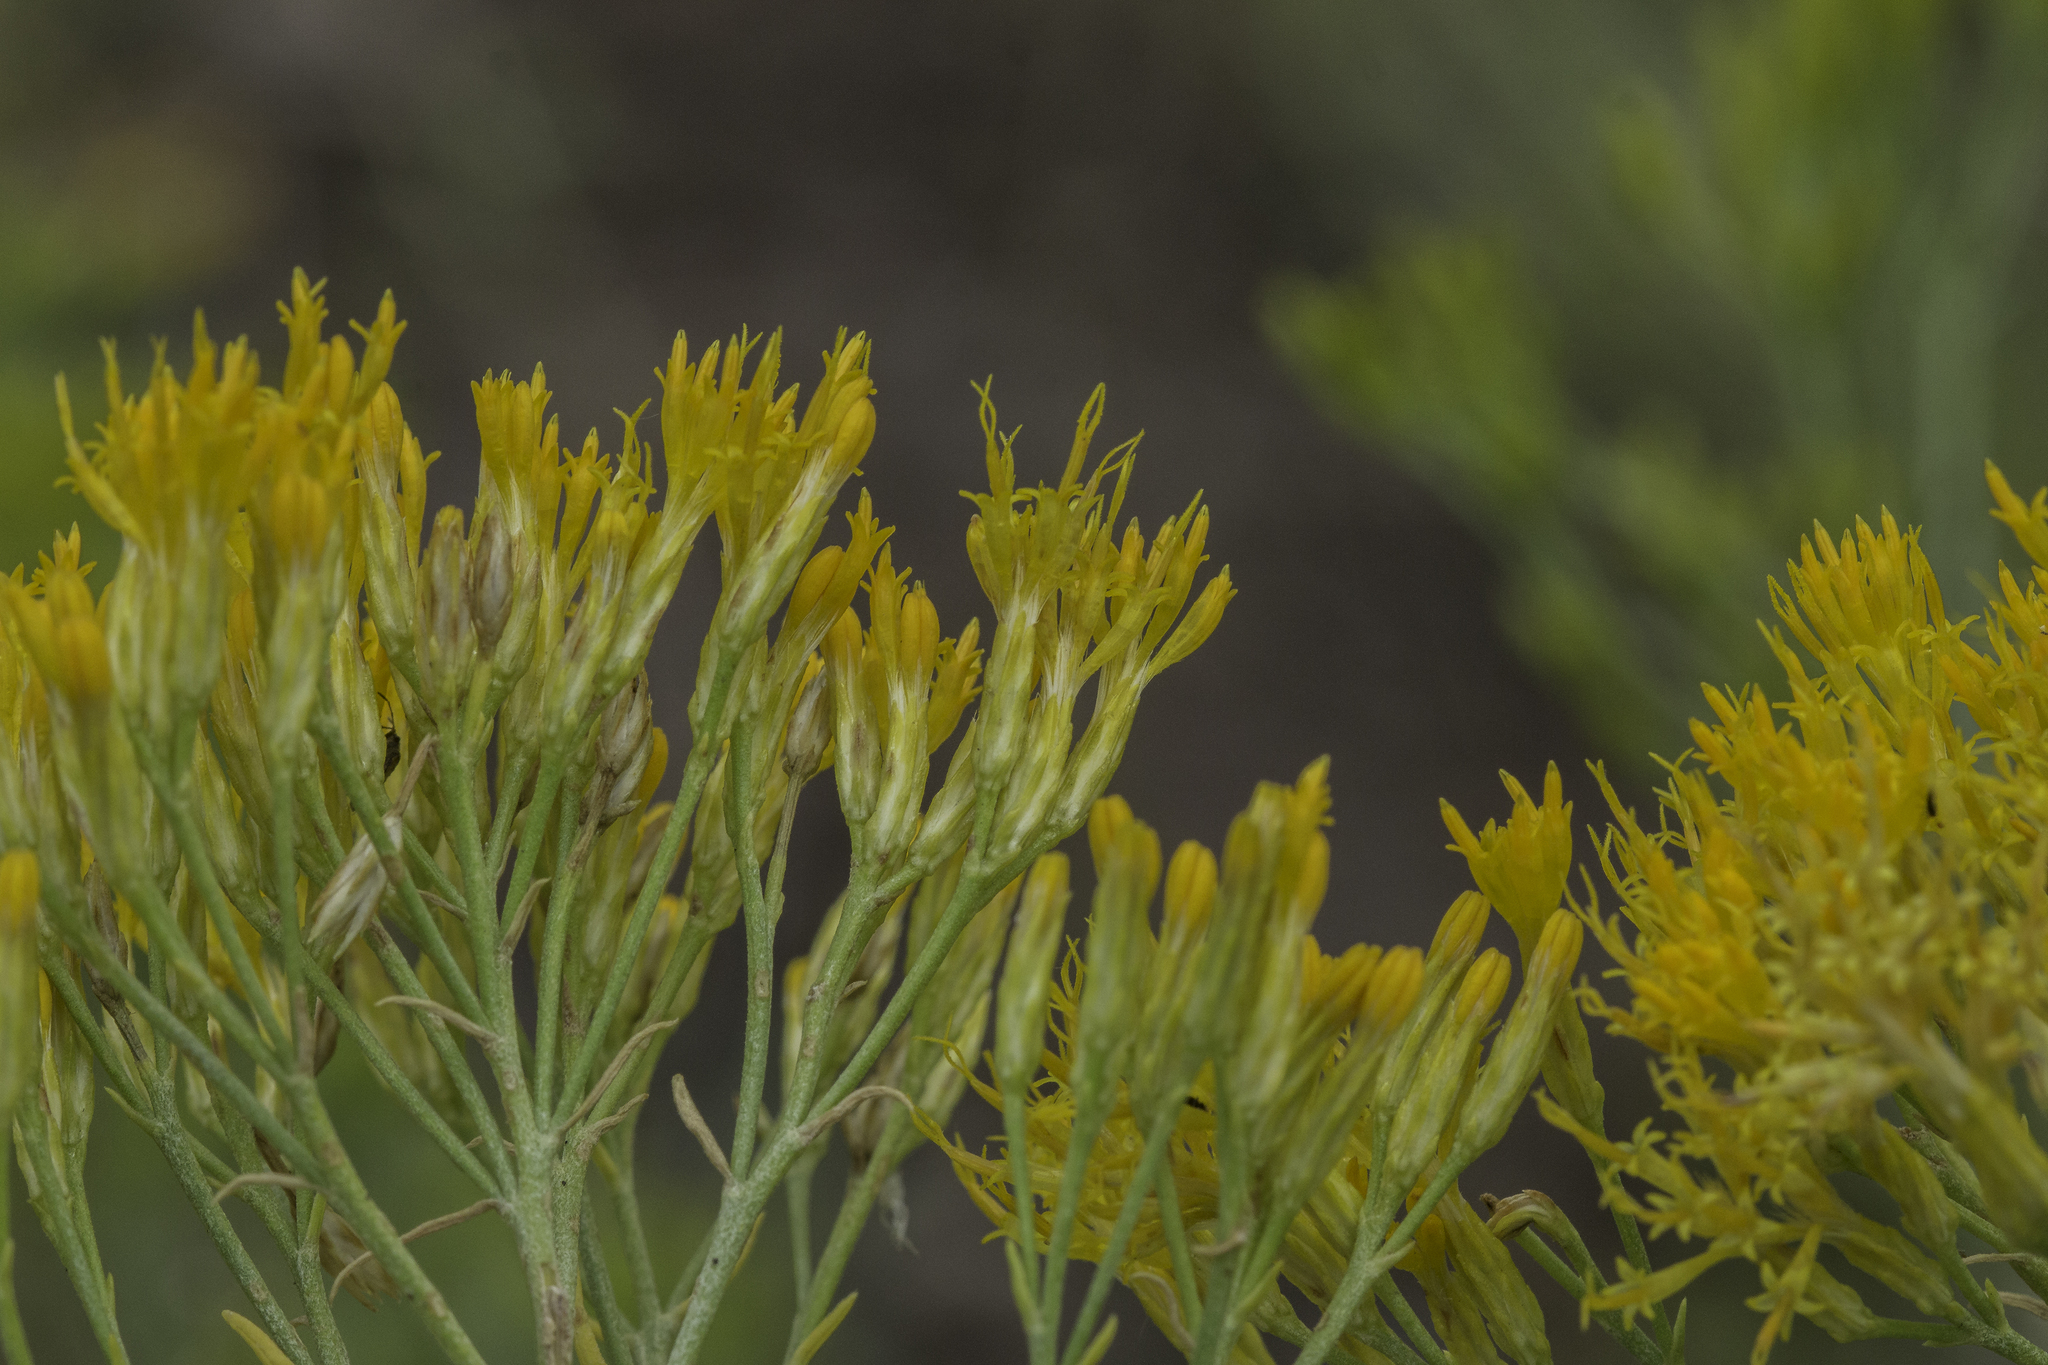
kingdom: Plantae
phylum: Tracheophyta
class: Magnoliopsida
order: Asterales
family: Asteraceae
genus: Ericameria
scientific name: Ericameria nauseosa
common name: Rubber rabbitbrush
